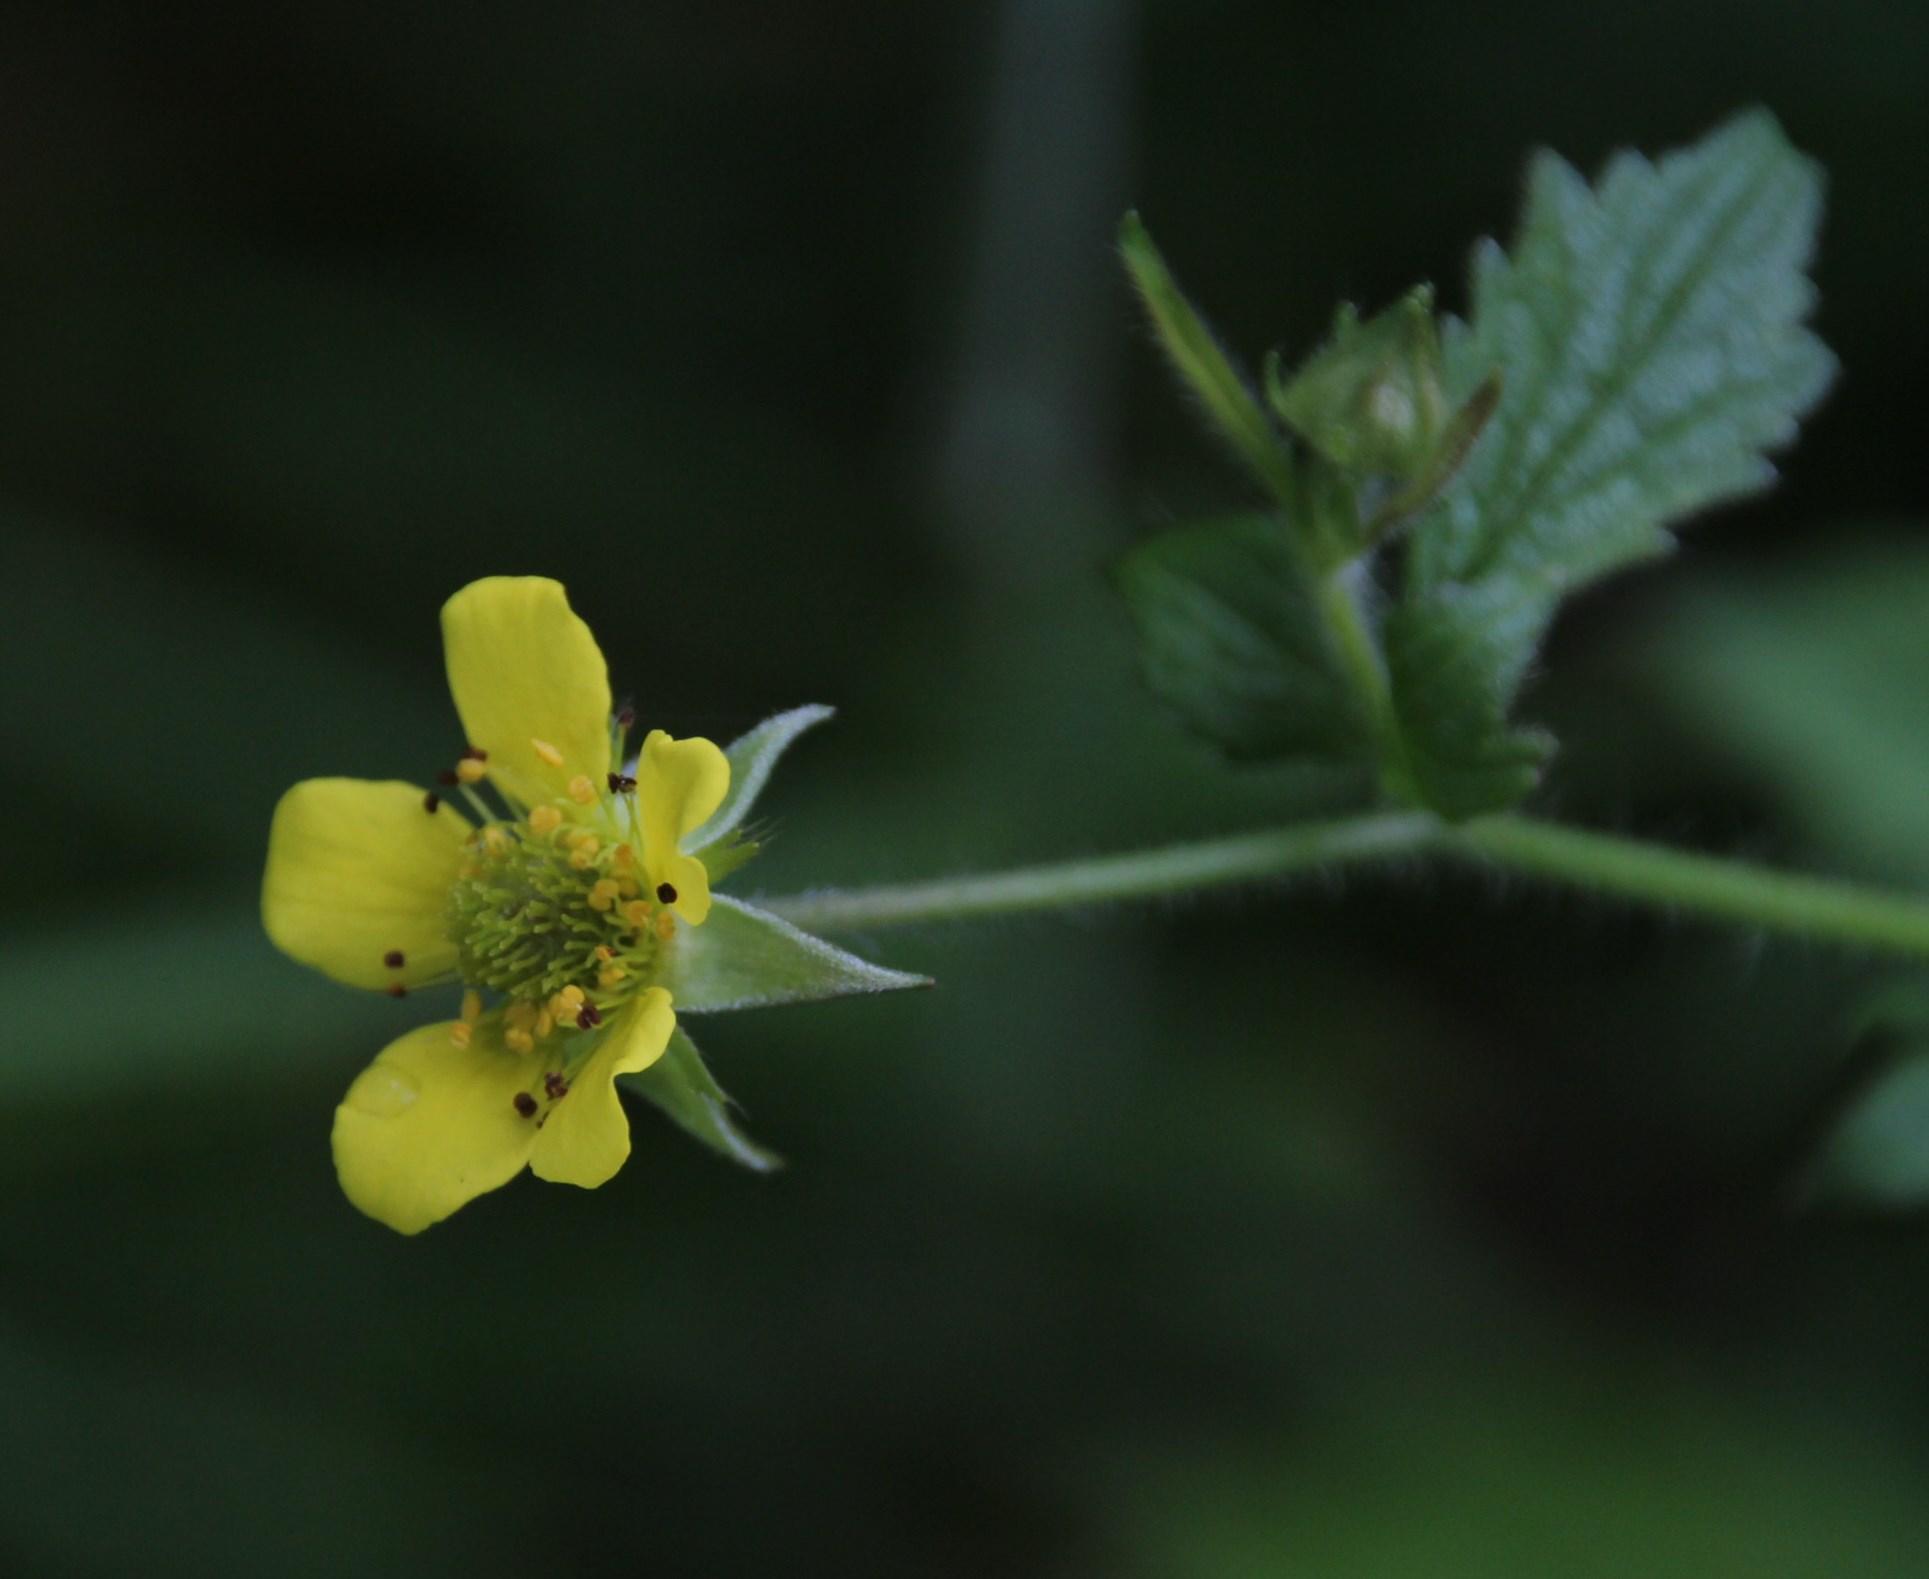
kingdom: Plantae
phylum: Tracheophyta
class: Magnoliopsida
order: Rosales
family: Rosaceae
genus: Geum
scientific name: Geum urbanum
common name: Wood avens
